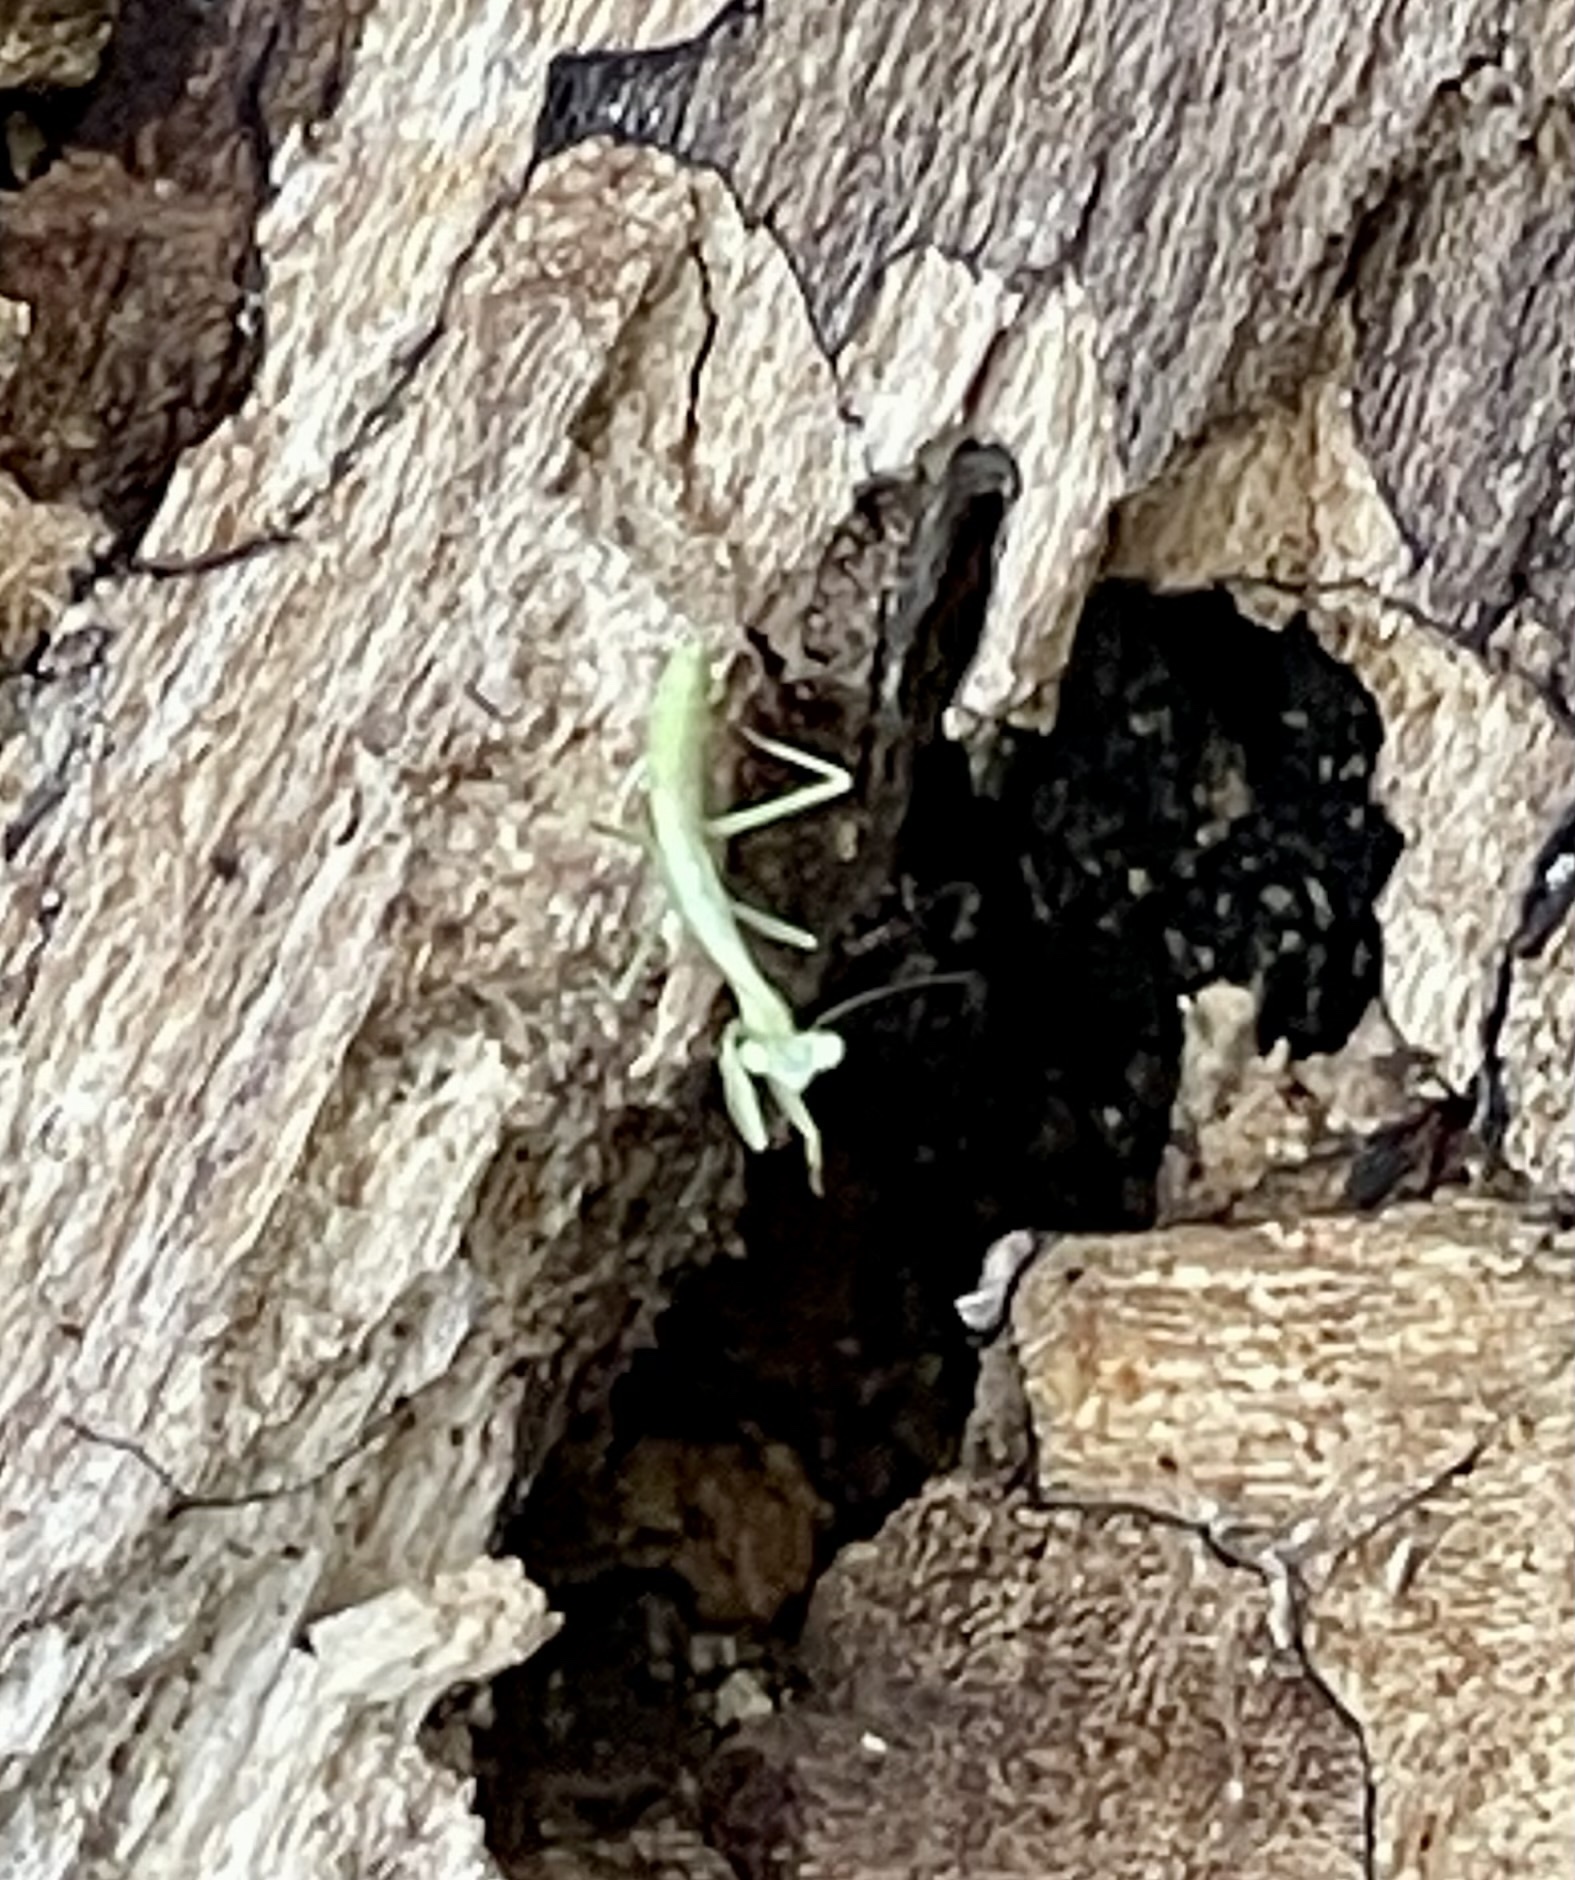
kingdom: Animalia
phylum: Arthropoda
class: Insecta
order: Mantodea
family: Mantidae
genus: Stagmomantis
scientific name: Stagmomantis carolina
